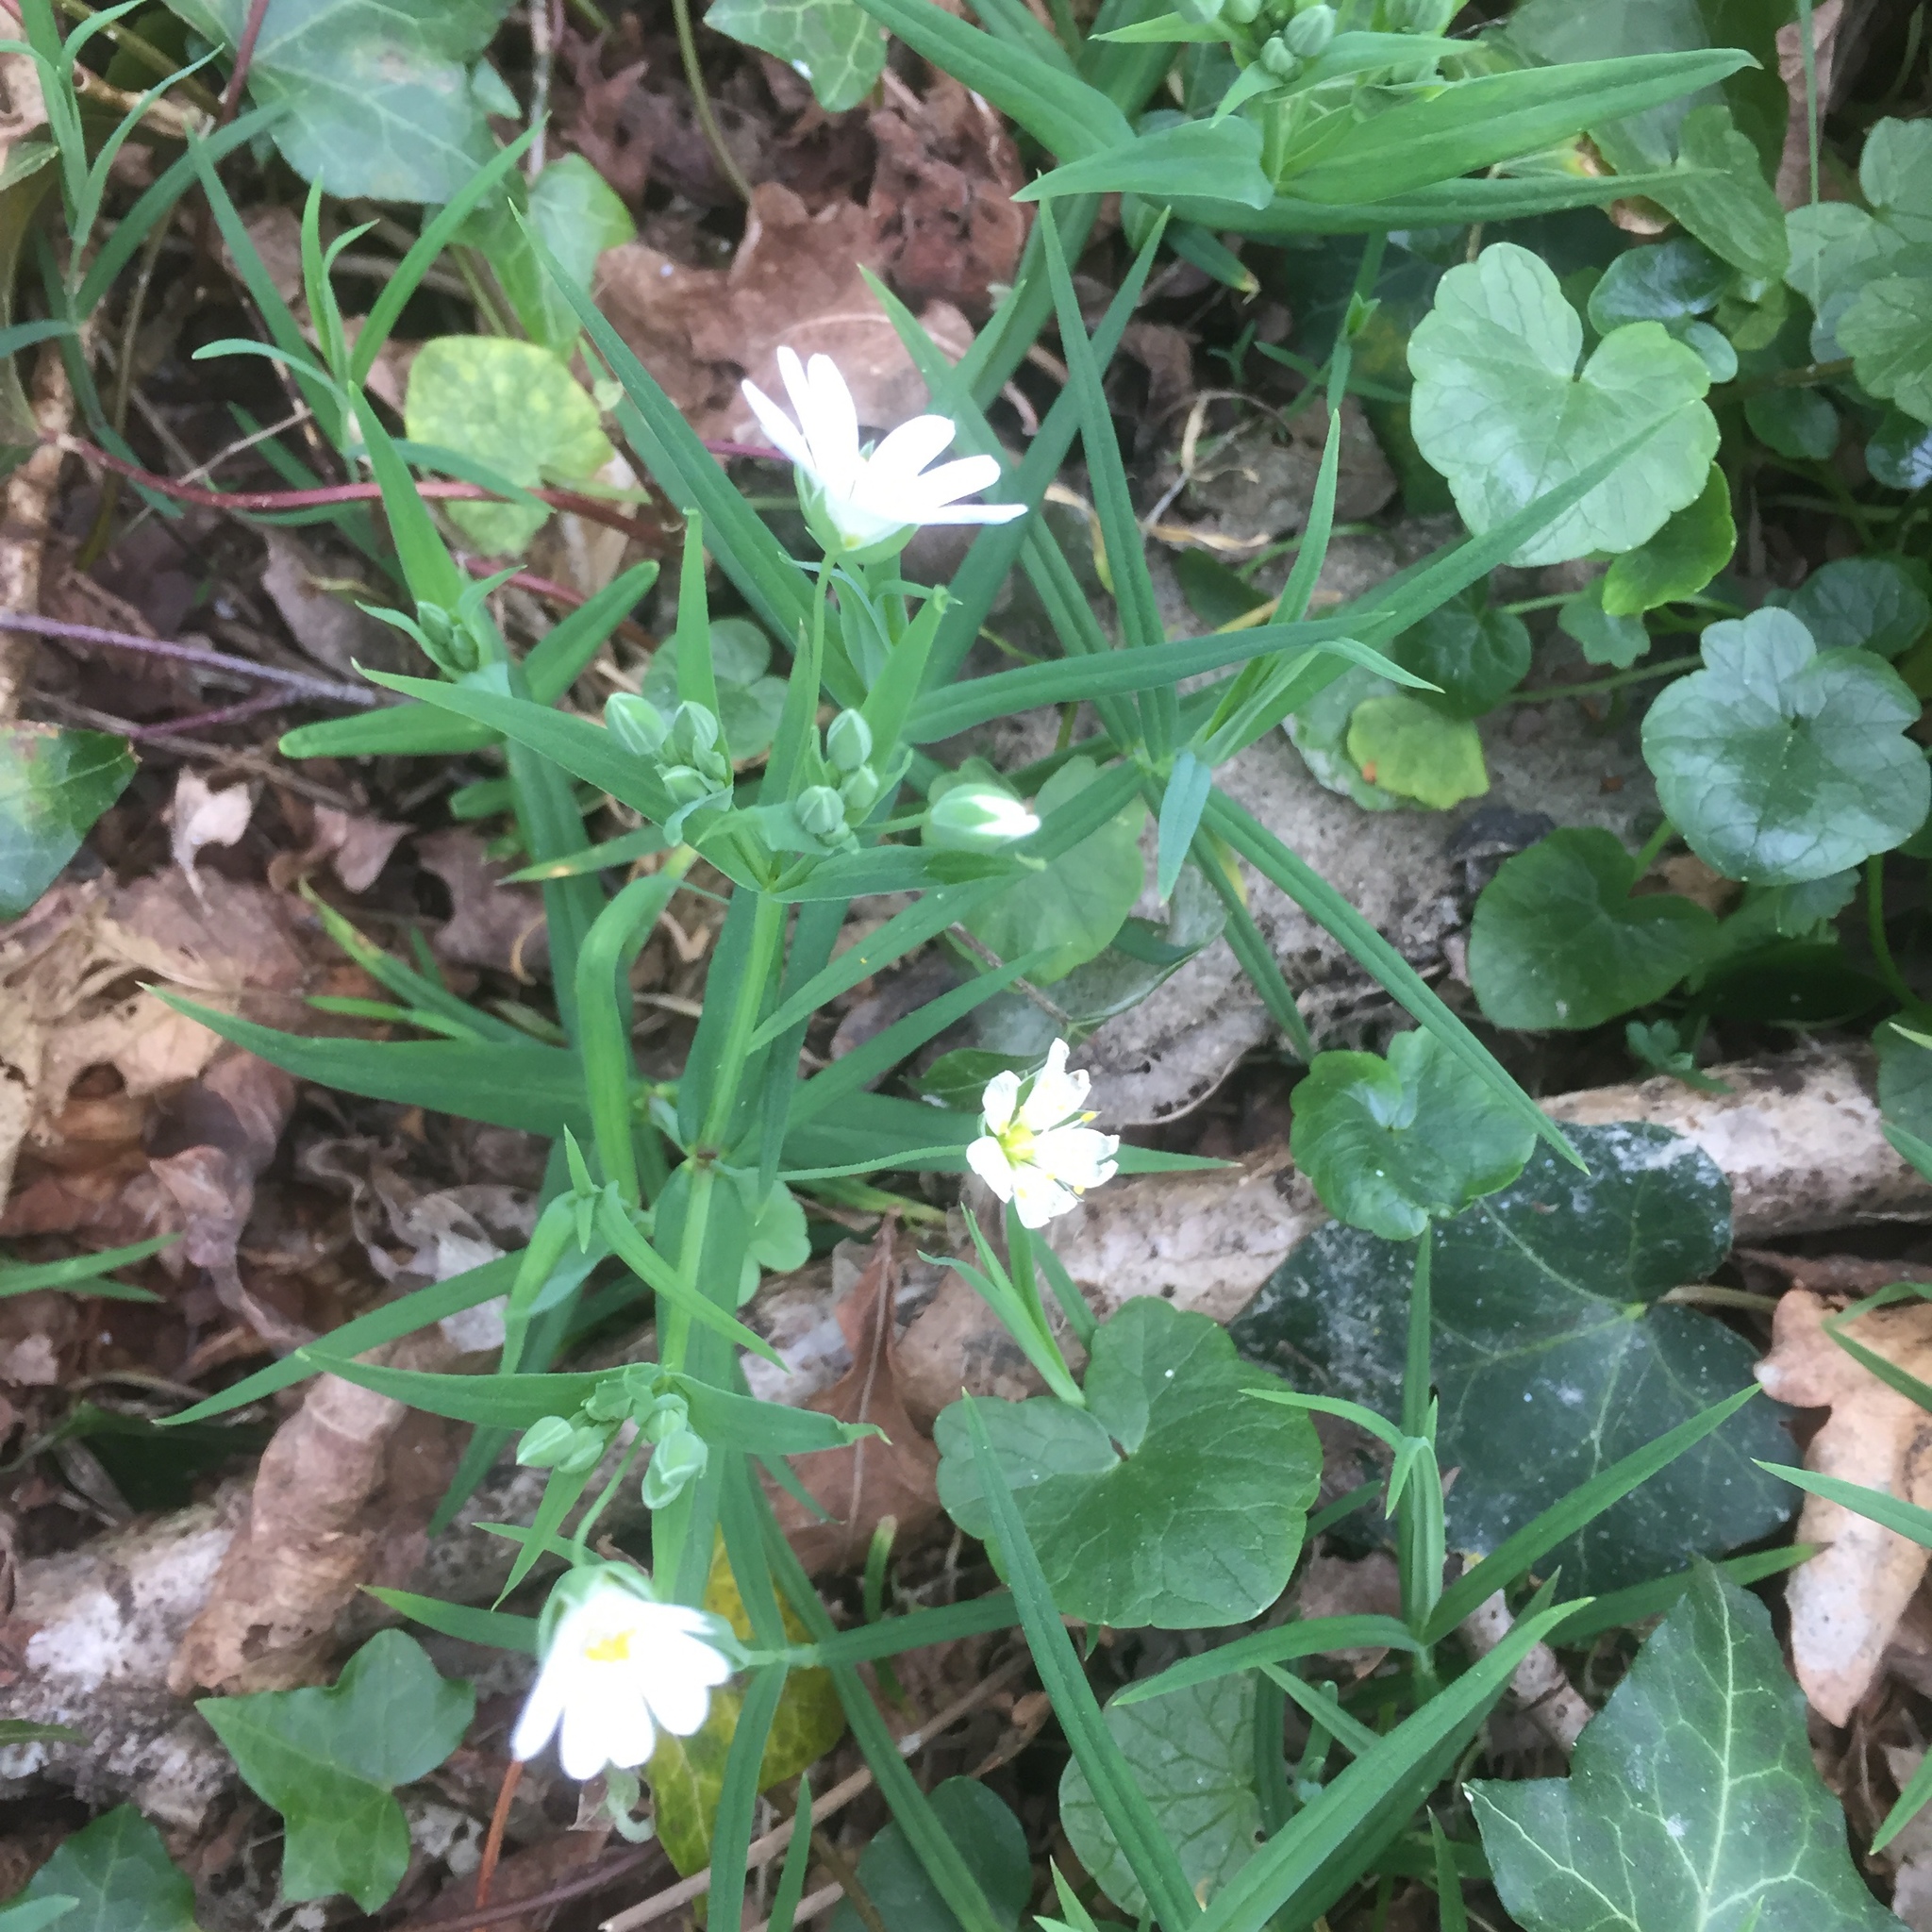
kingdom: Plantae
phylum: Tracheophyta
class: Magnoliopsida
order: Caryophyllales
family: Caryophyllaceae
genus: Rabelera
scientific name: Rabelera holostea
